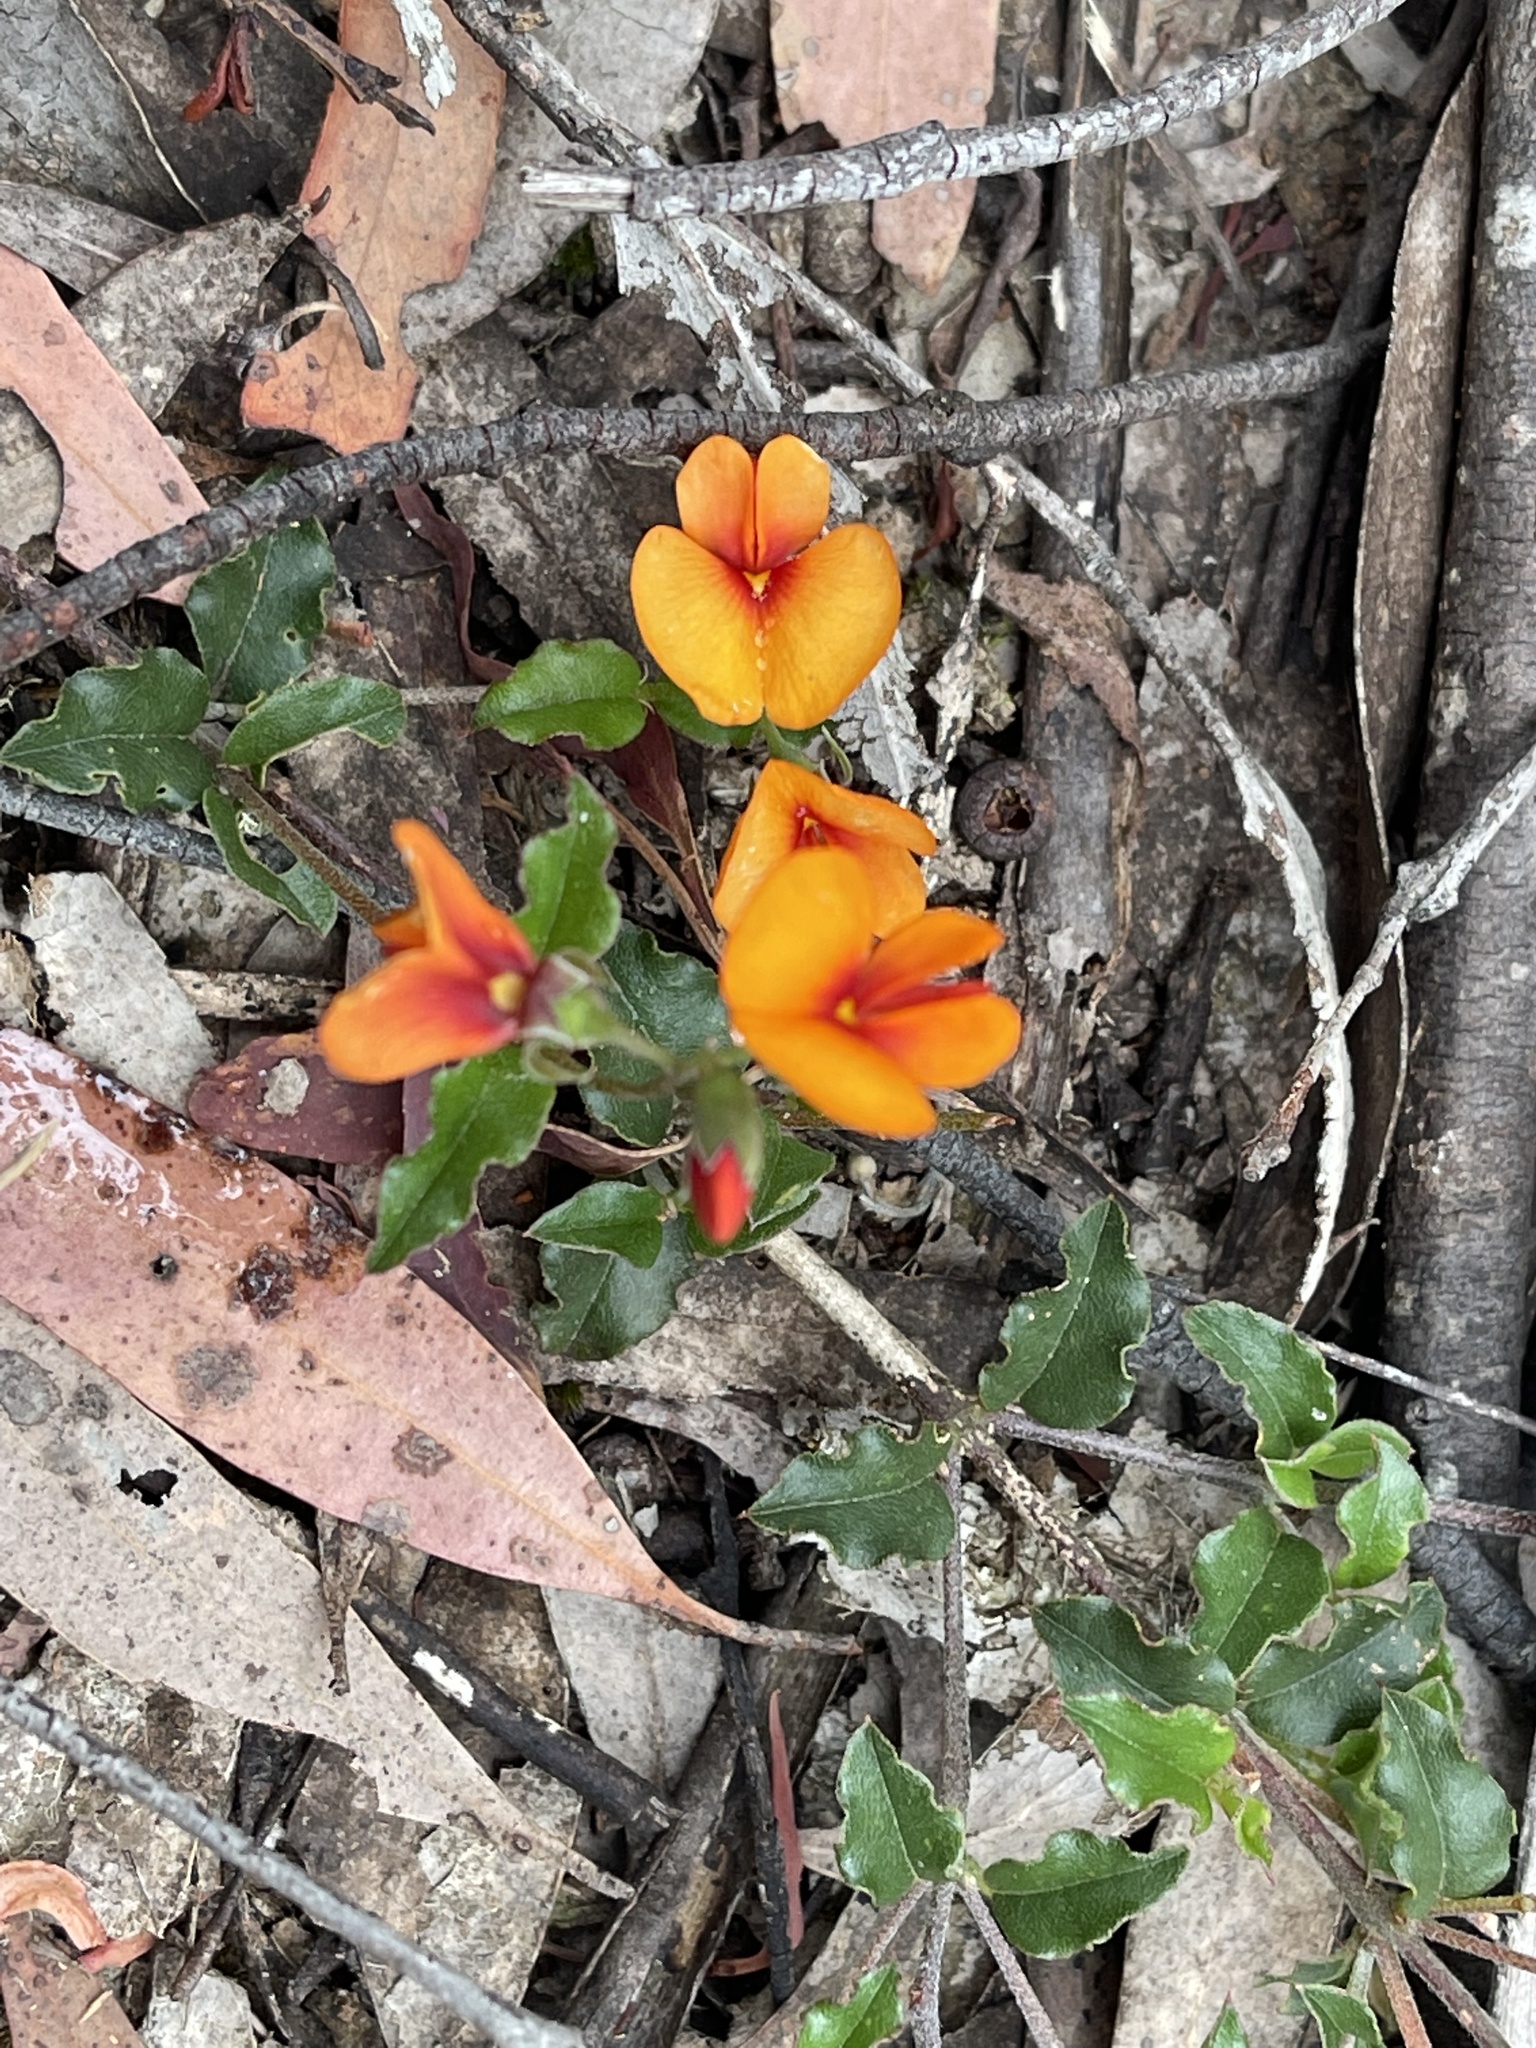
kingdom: Plantae
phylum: Tracheophyta
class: Magnoliopsida
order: Fabales
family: Fabaceae
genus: Podolobium
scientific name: Podolobium procumbens
